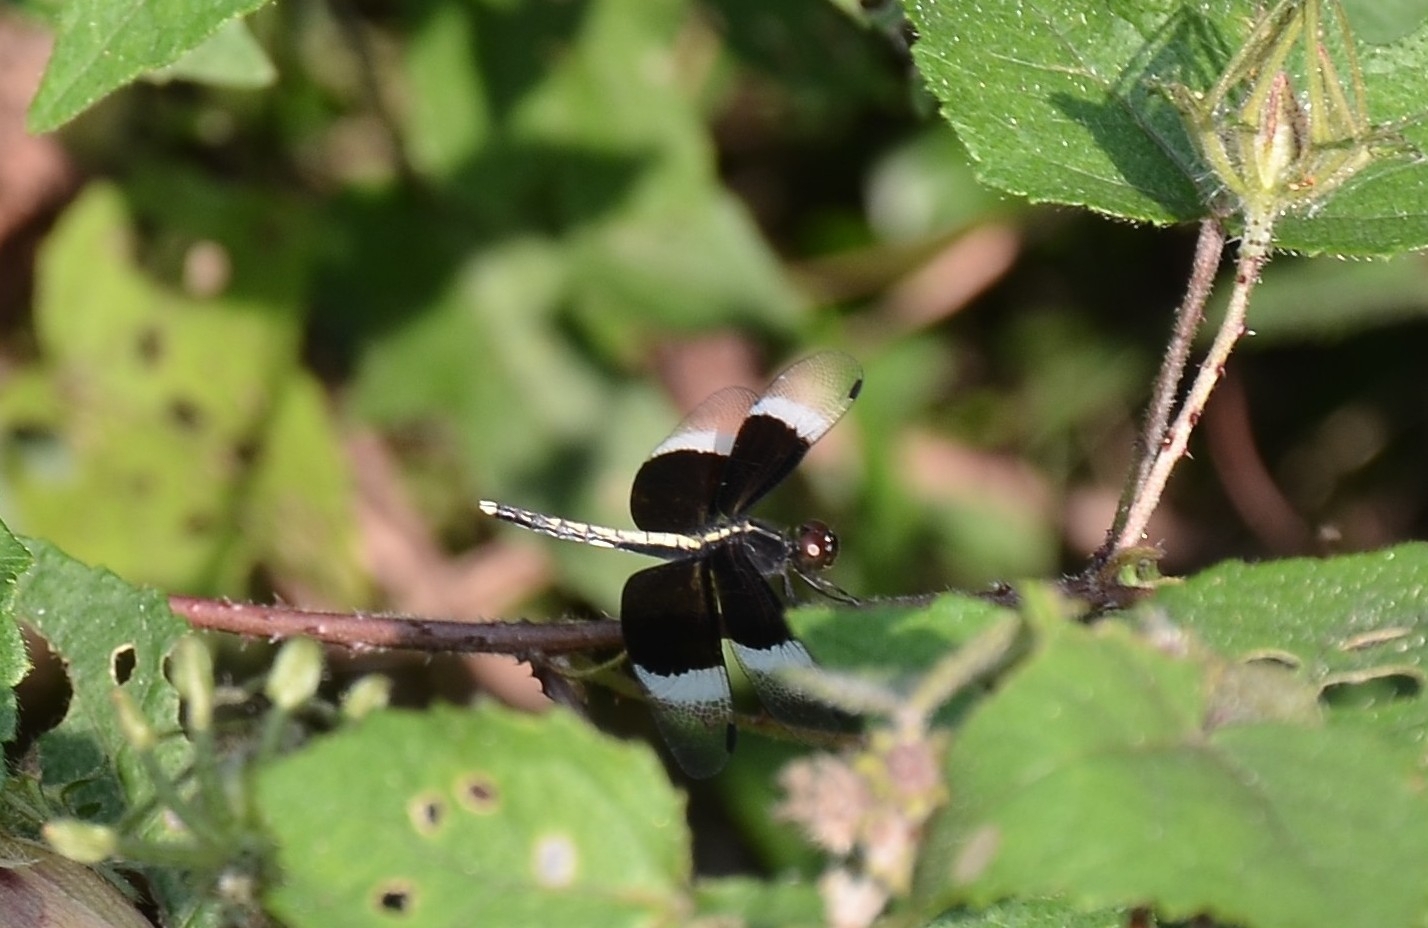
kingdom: Animalia
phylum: Arthropoda
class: Insecta
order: Odonata
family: Libellulidae
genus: Neurothemis
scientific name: Neurothemis tullia
